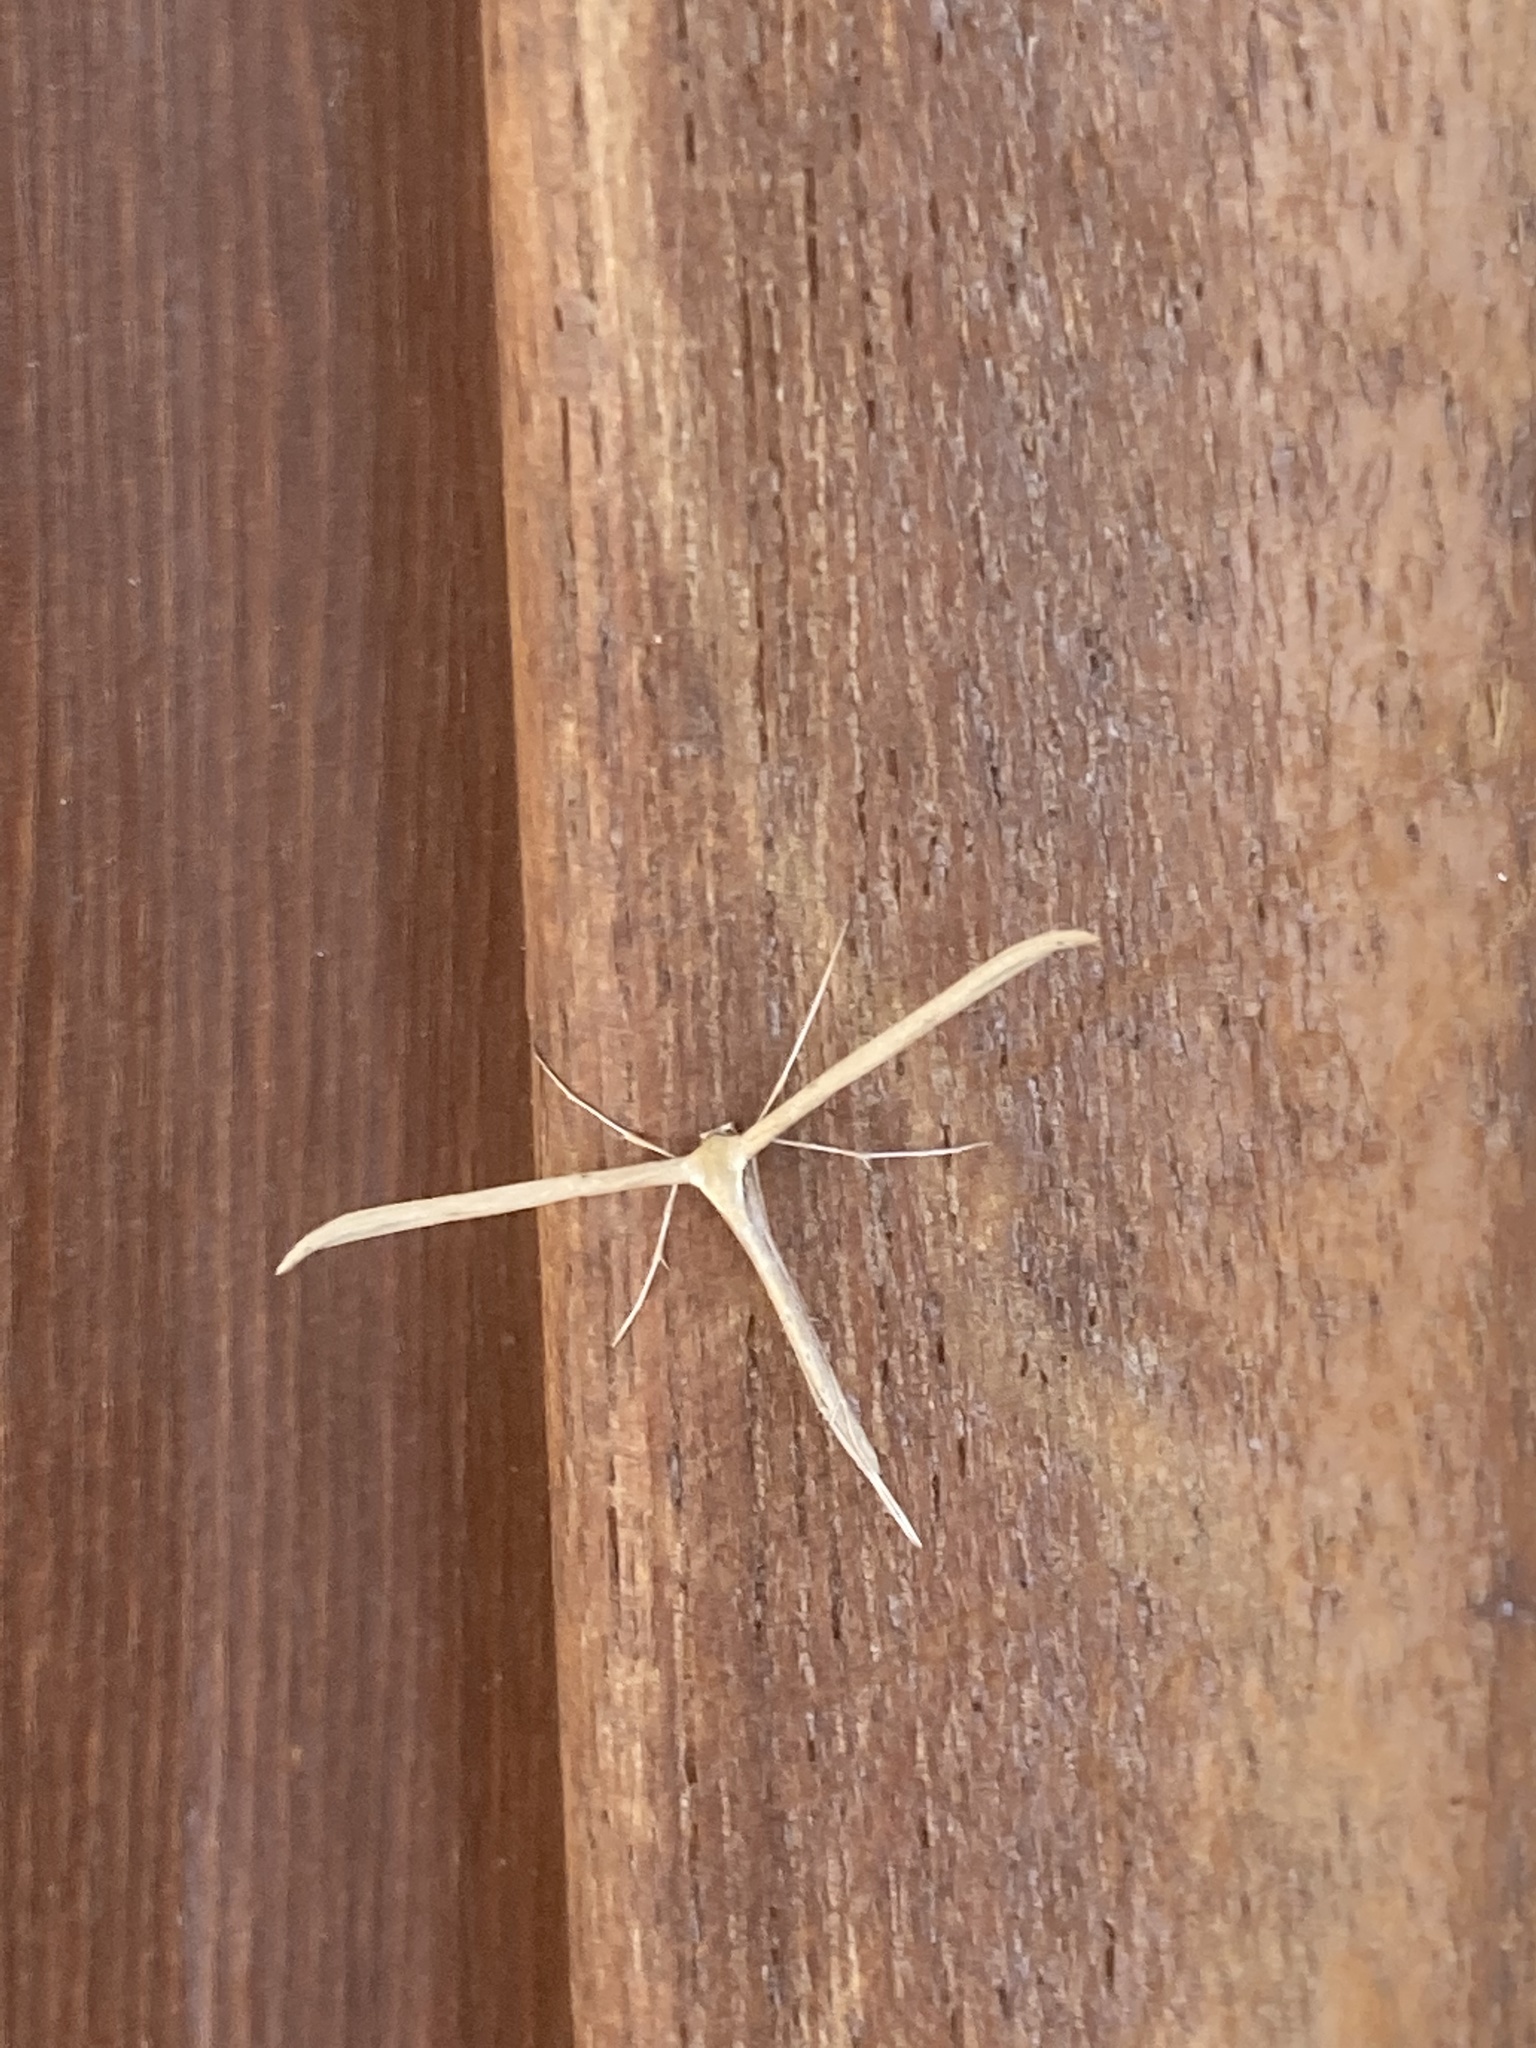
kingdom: Animalia
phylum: Arthropoda
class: Insecta
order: Lepidoptera
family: Pterophoridae
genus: Emmelina
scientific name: Emmelina monodactyla
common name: Common plume
